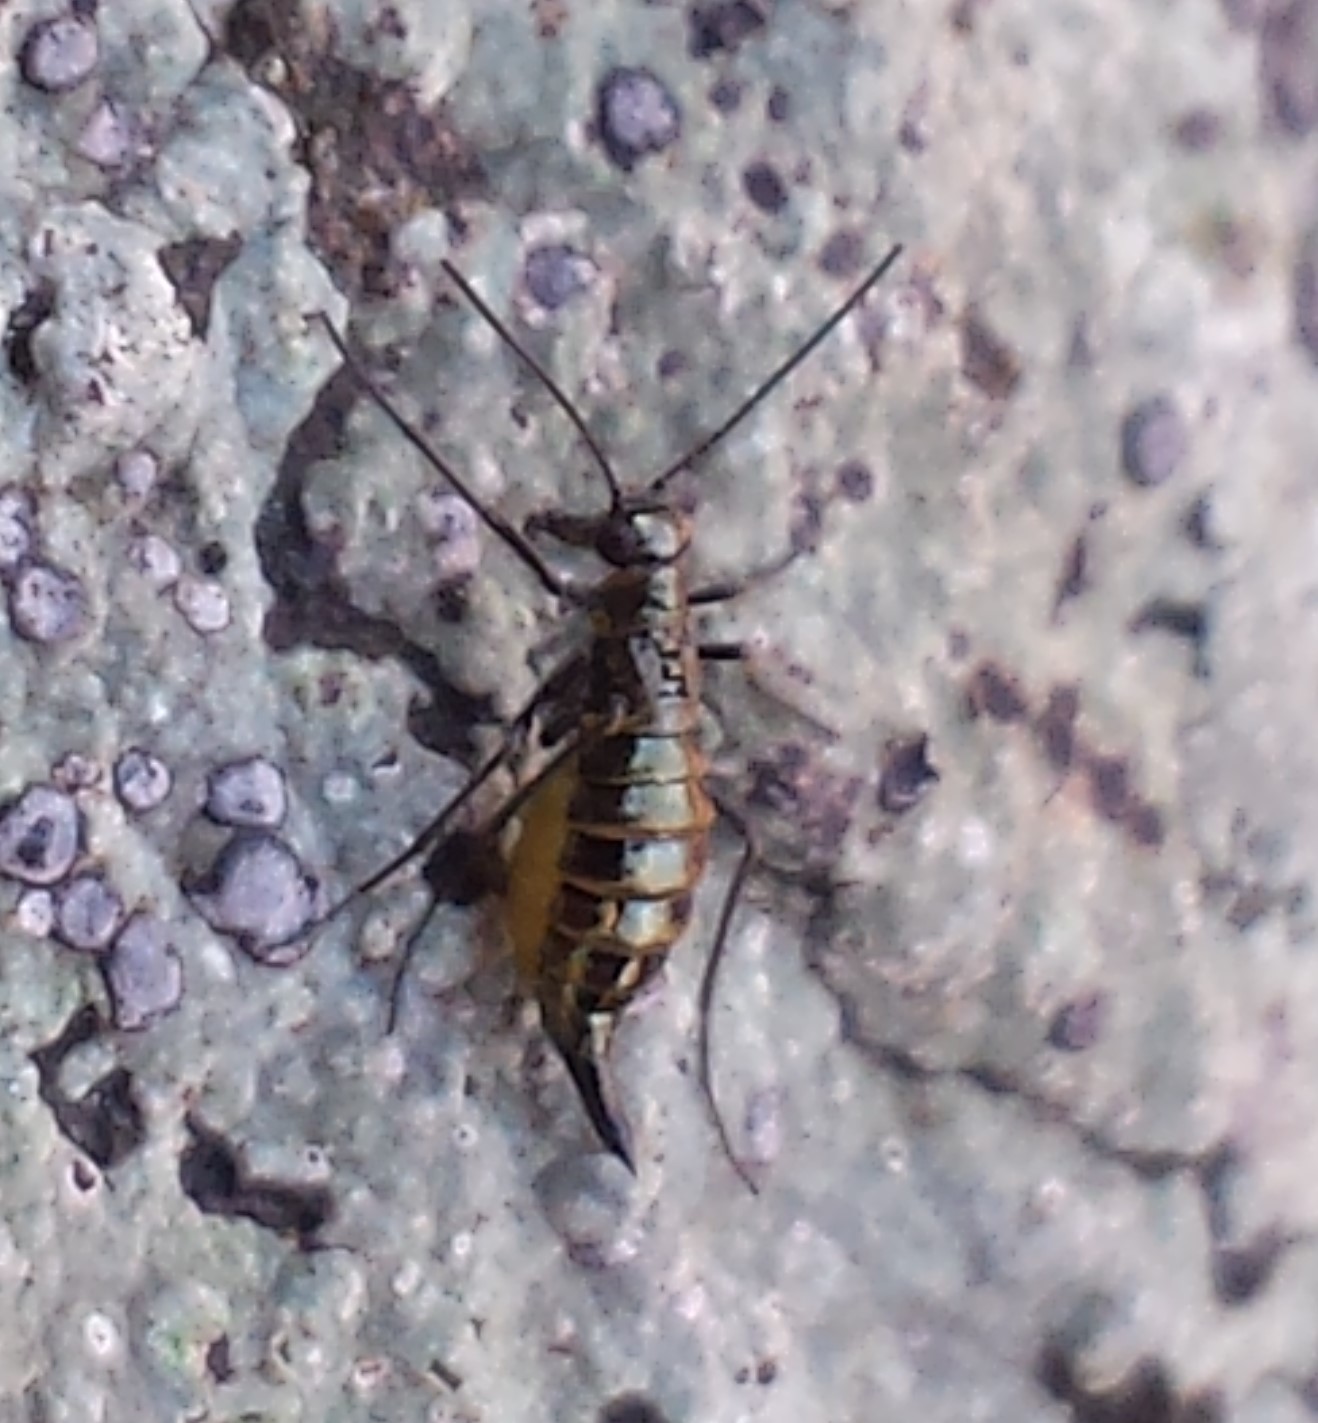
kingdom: Animalia
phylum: Arthropoda
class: Insecta
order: Mecoptera
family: Boreidae
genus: Boreus
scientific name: Boreus brumalis
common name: Mid-winter boreus
